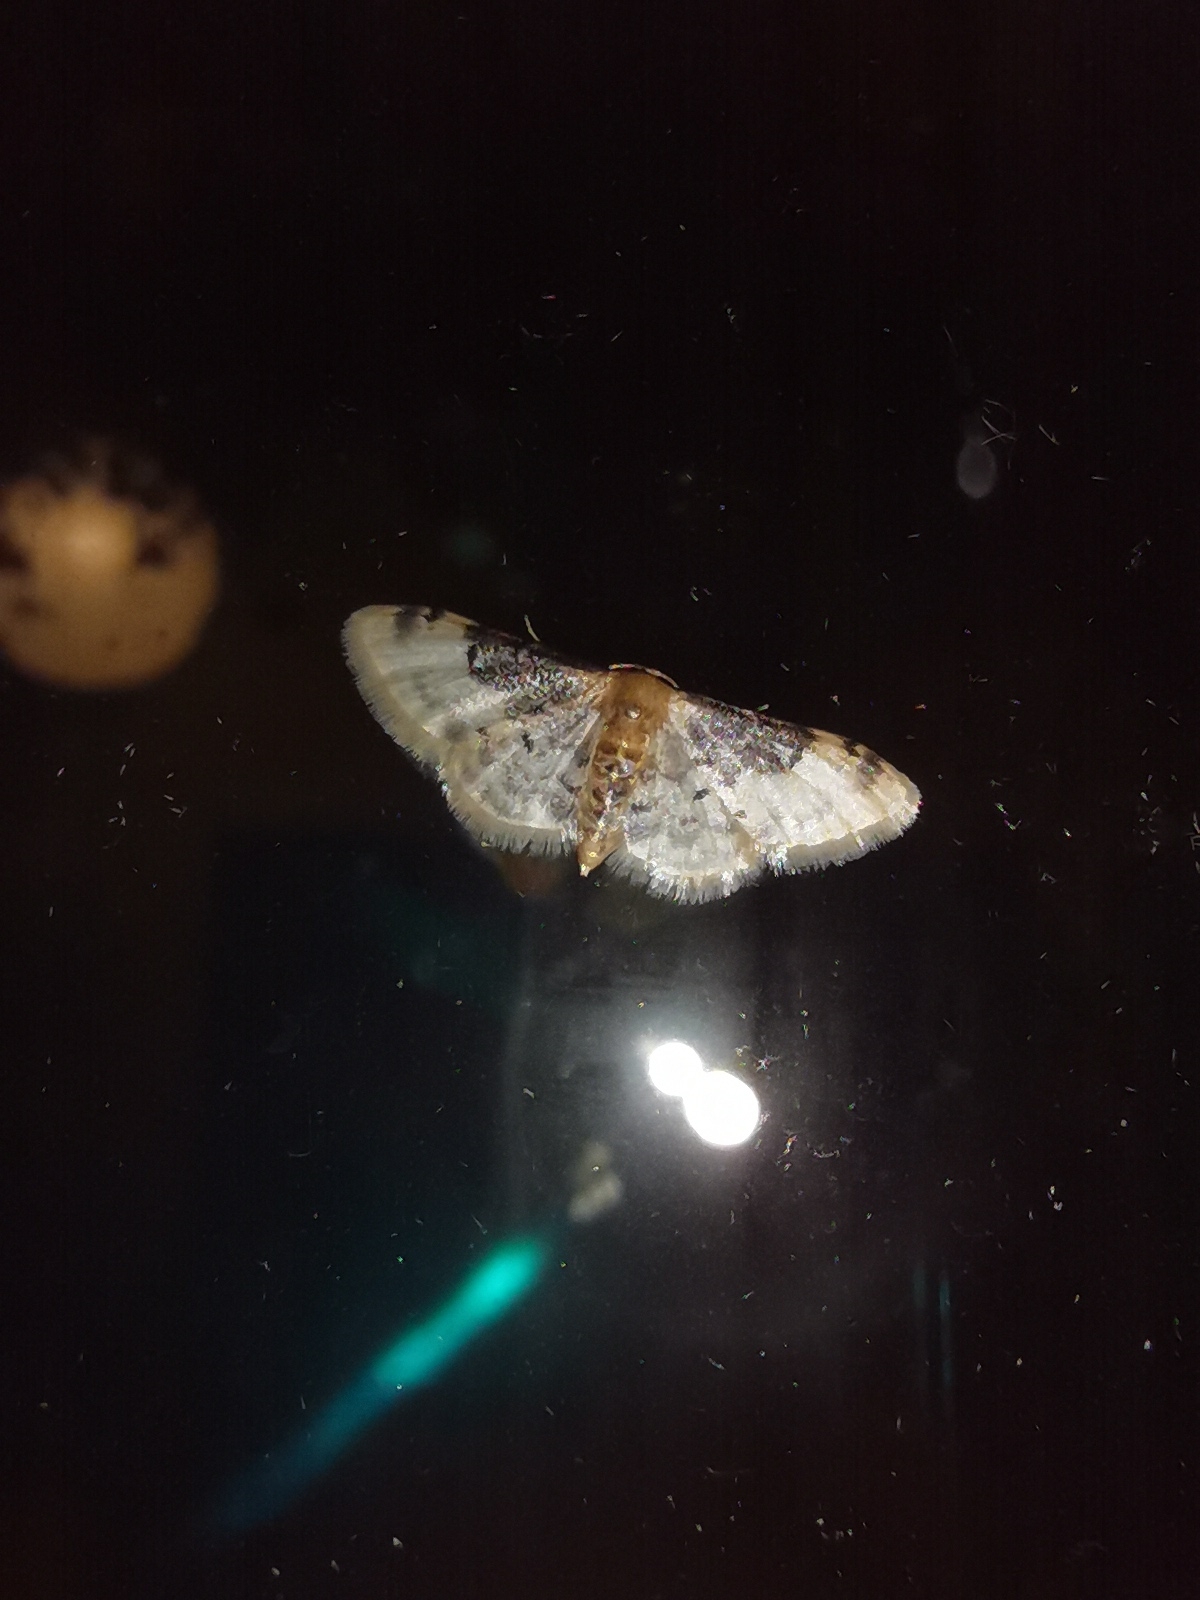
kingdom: Animalia
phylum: Arthropoda
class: Insecta
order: Lepidoptera
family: Geometridae
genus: Idaea
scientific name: Idaea filicata
